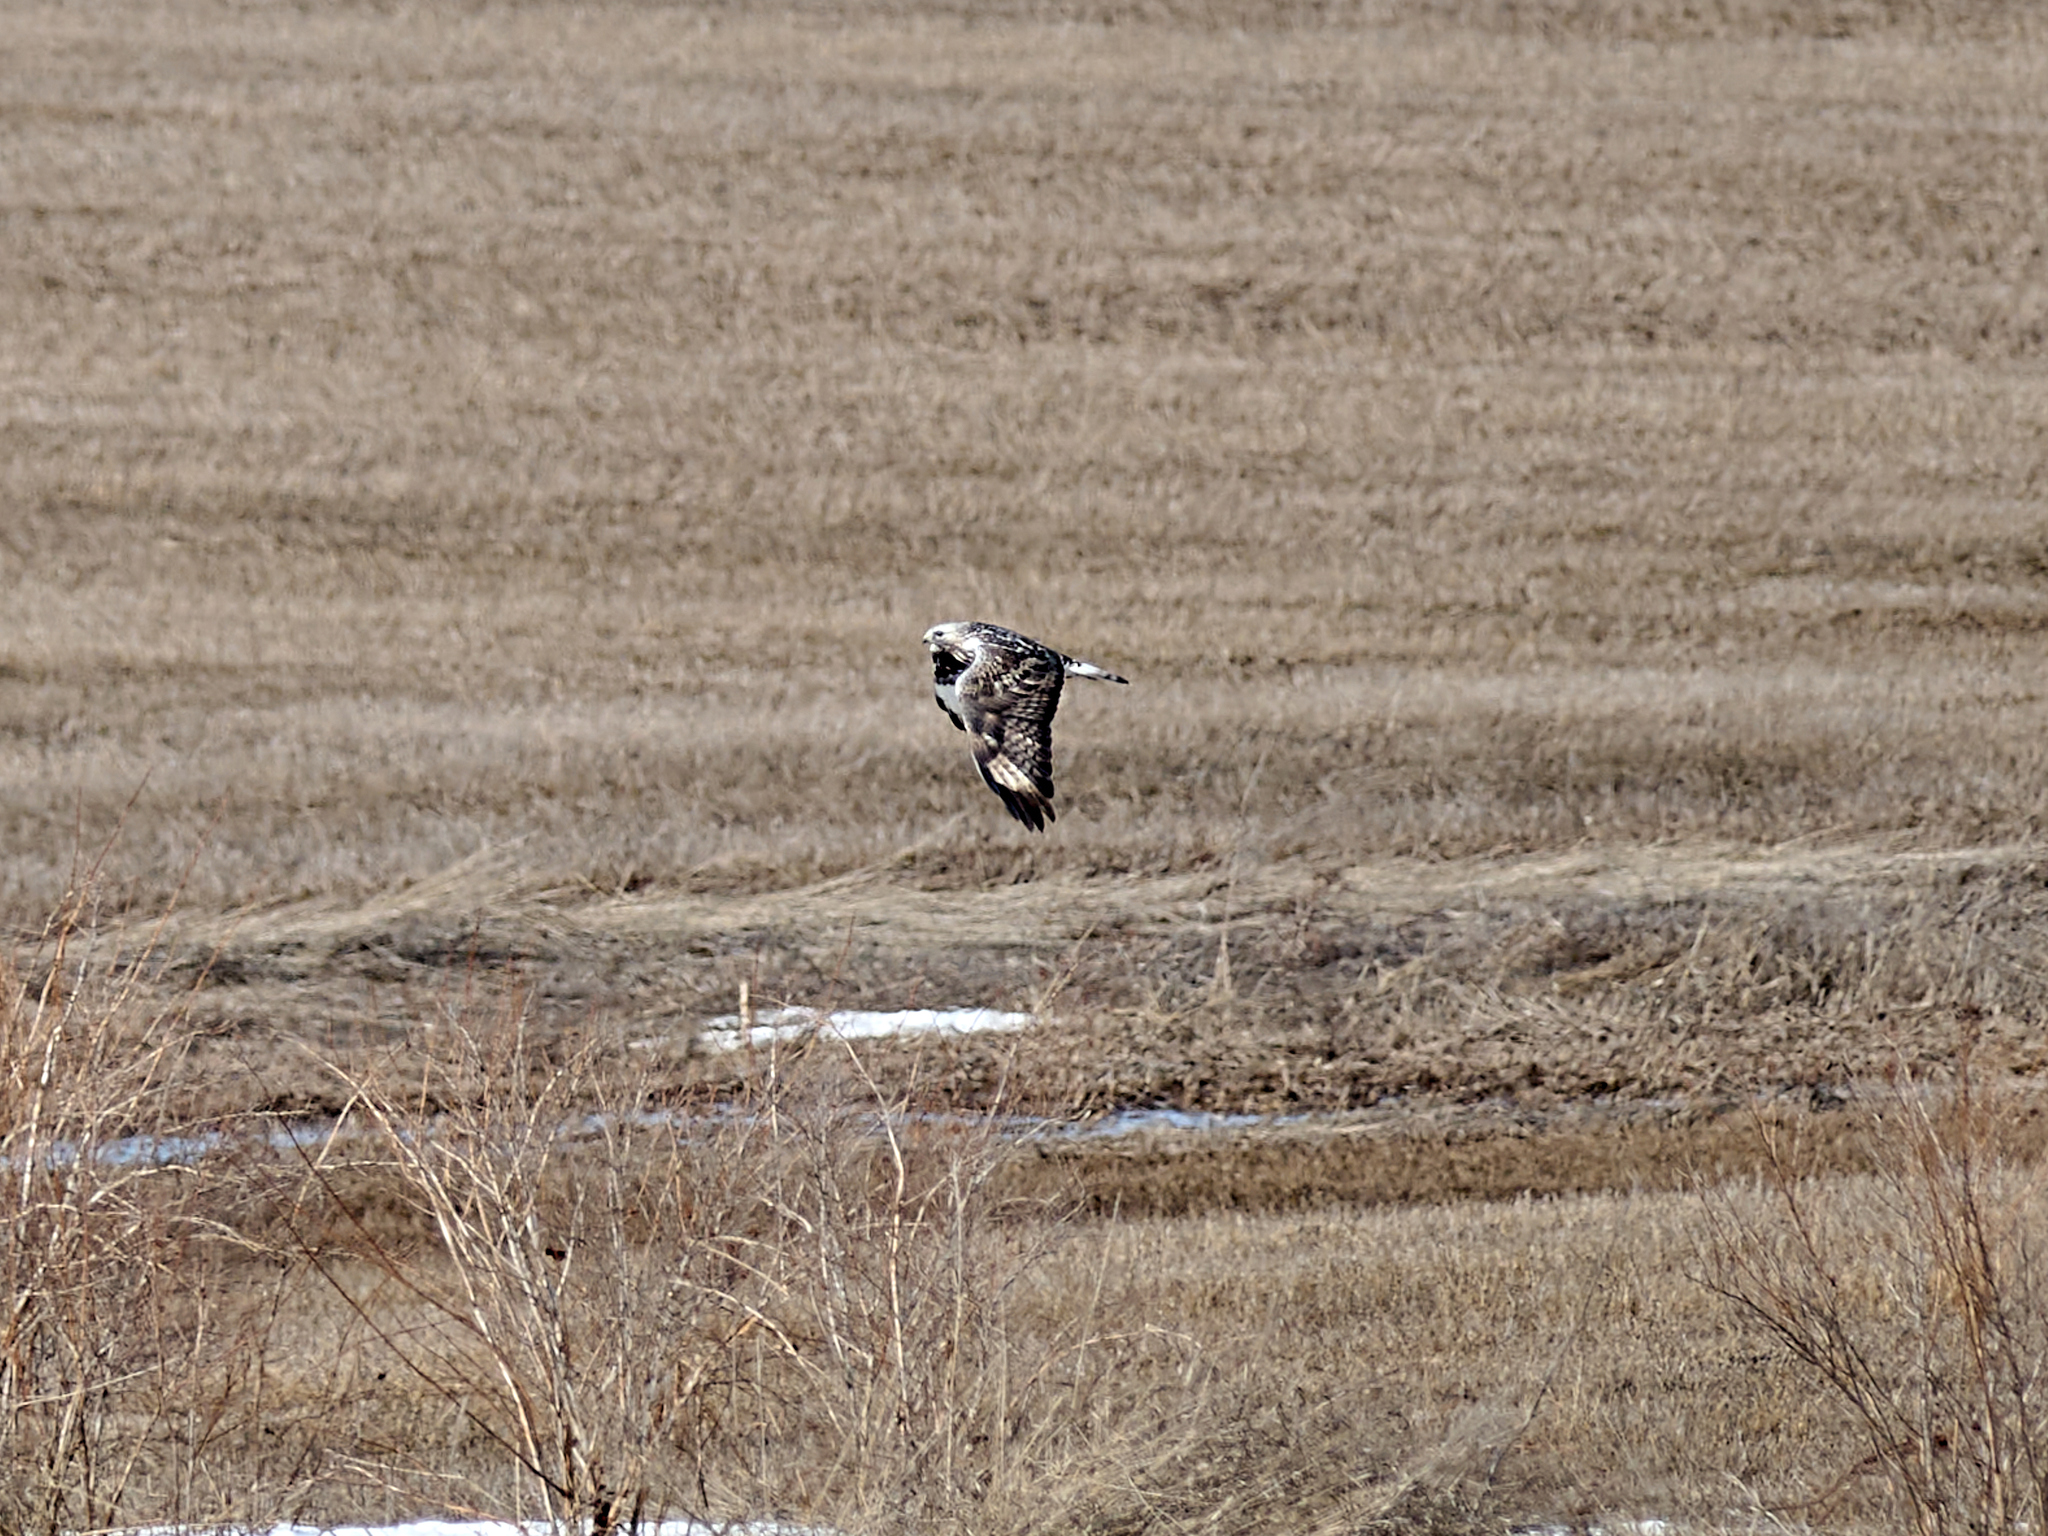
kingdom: Animalia
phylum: Chordata
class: Aves
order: Accipitriformes
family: Accipitridae
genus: Buteo
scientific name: Buteo lagopus
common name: Rough-legged buzzard
